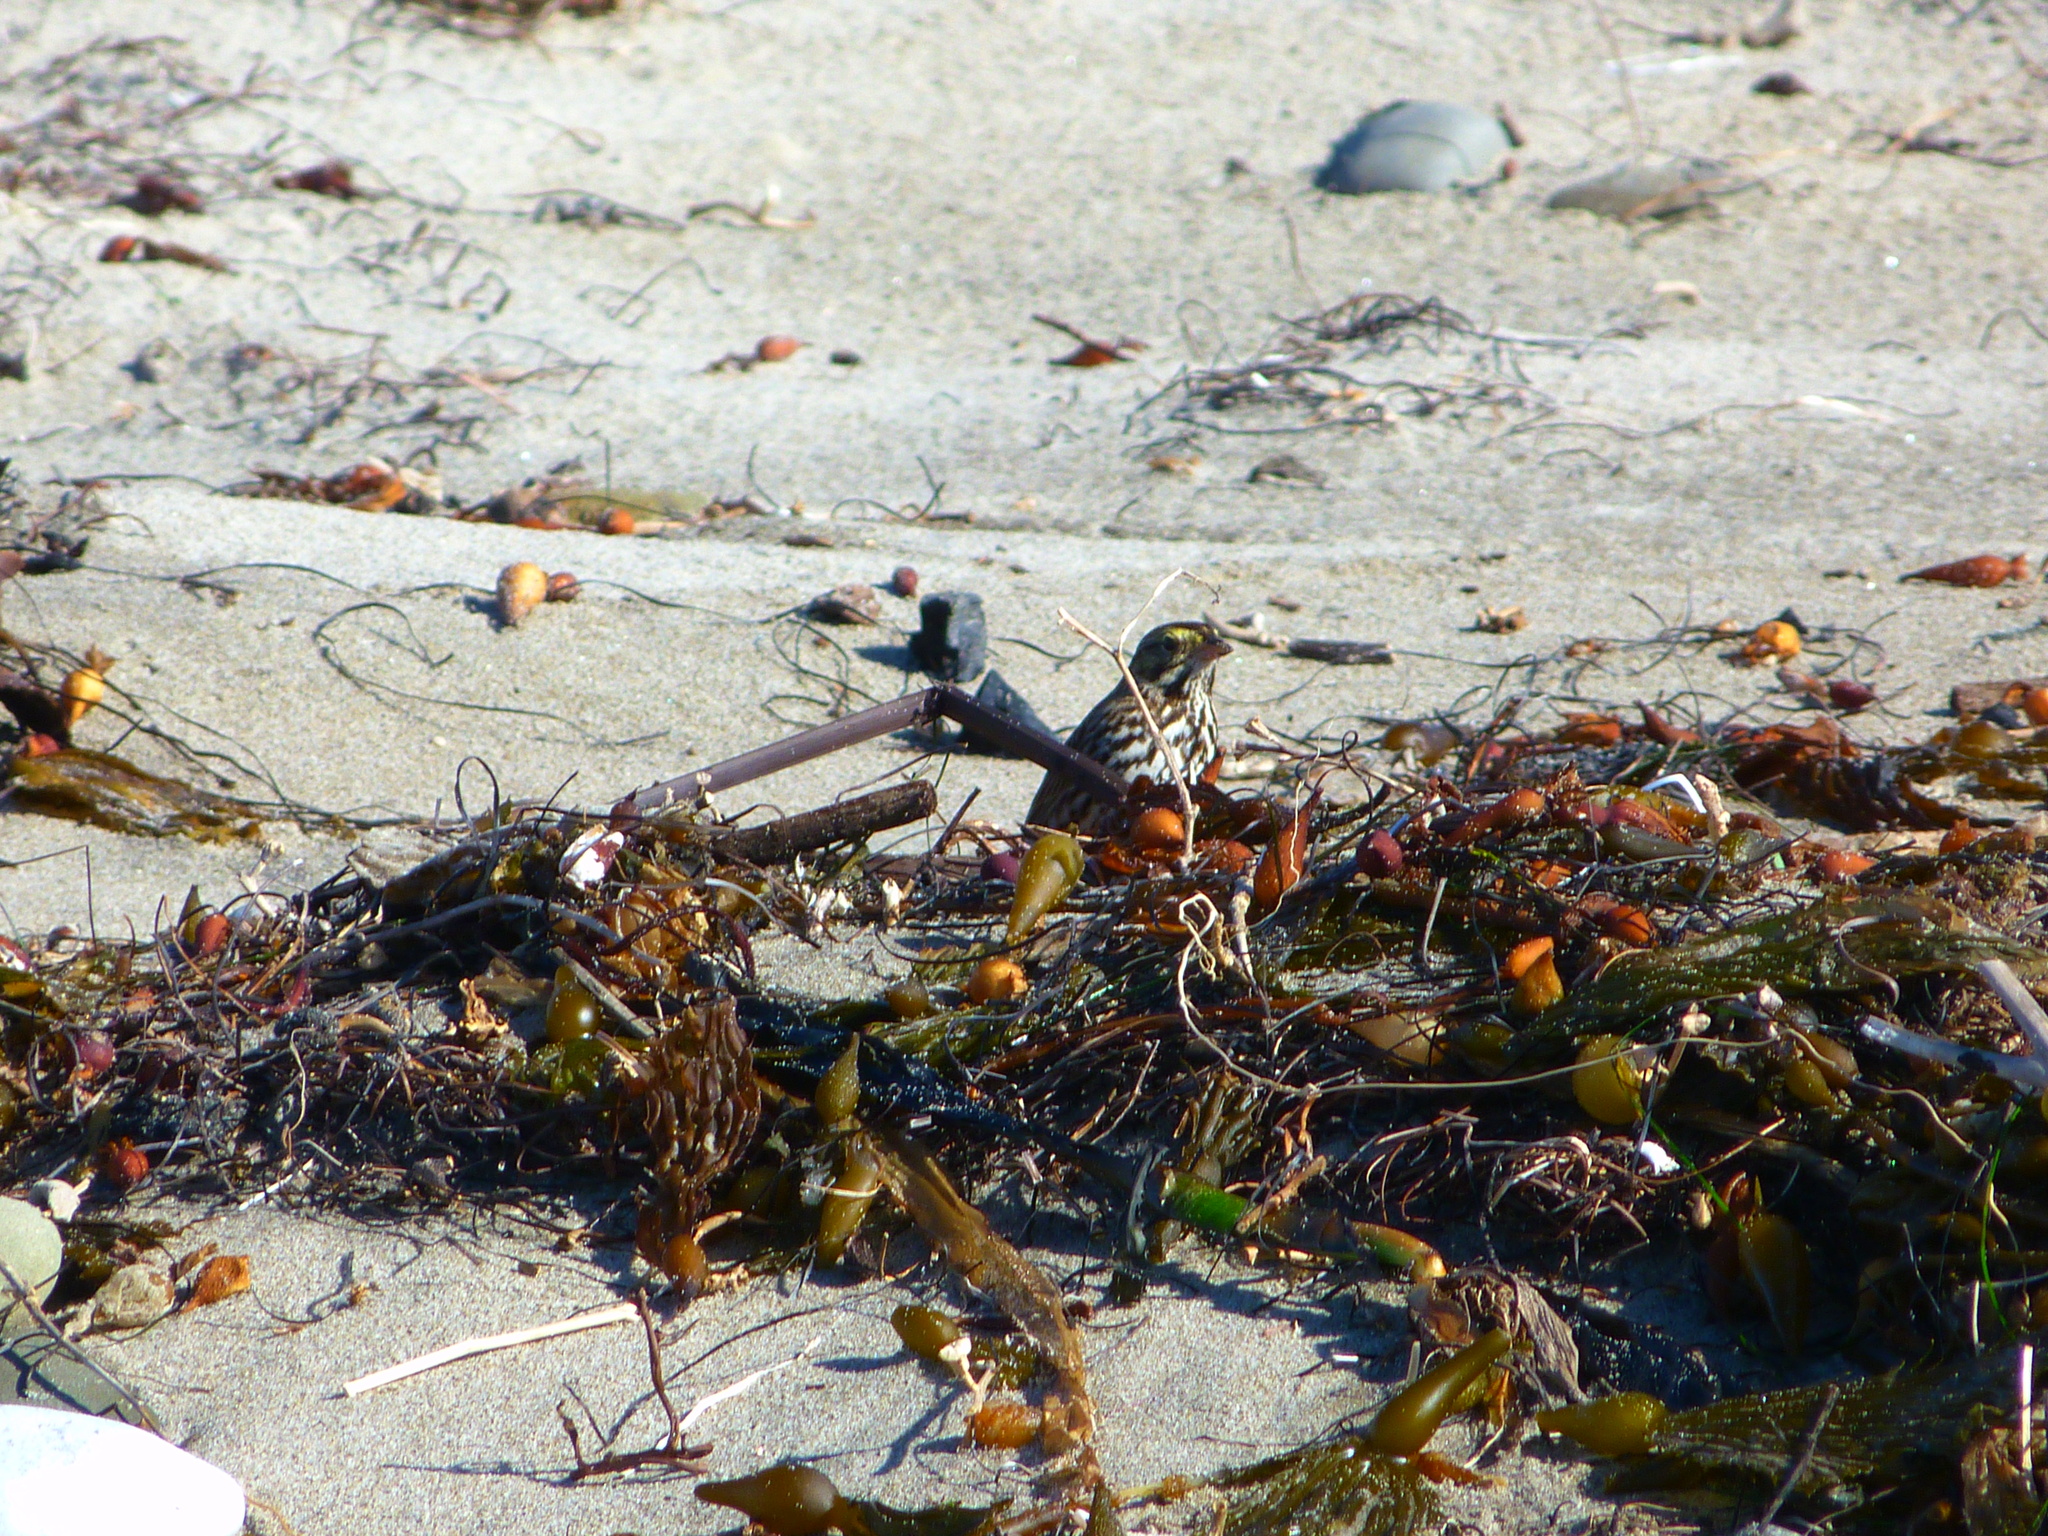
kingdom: Animalia
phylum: Chordata
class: Aves
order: Passeriformes
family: Passerellidae
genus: Passerculus
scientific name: Passerculus sandwichensis
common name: Savannah sparrow
